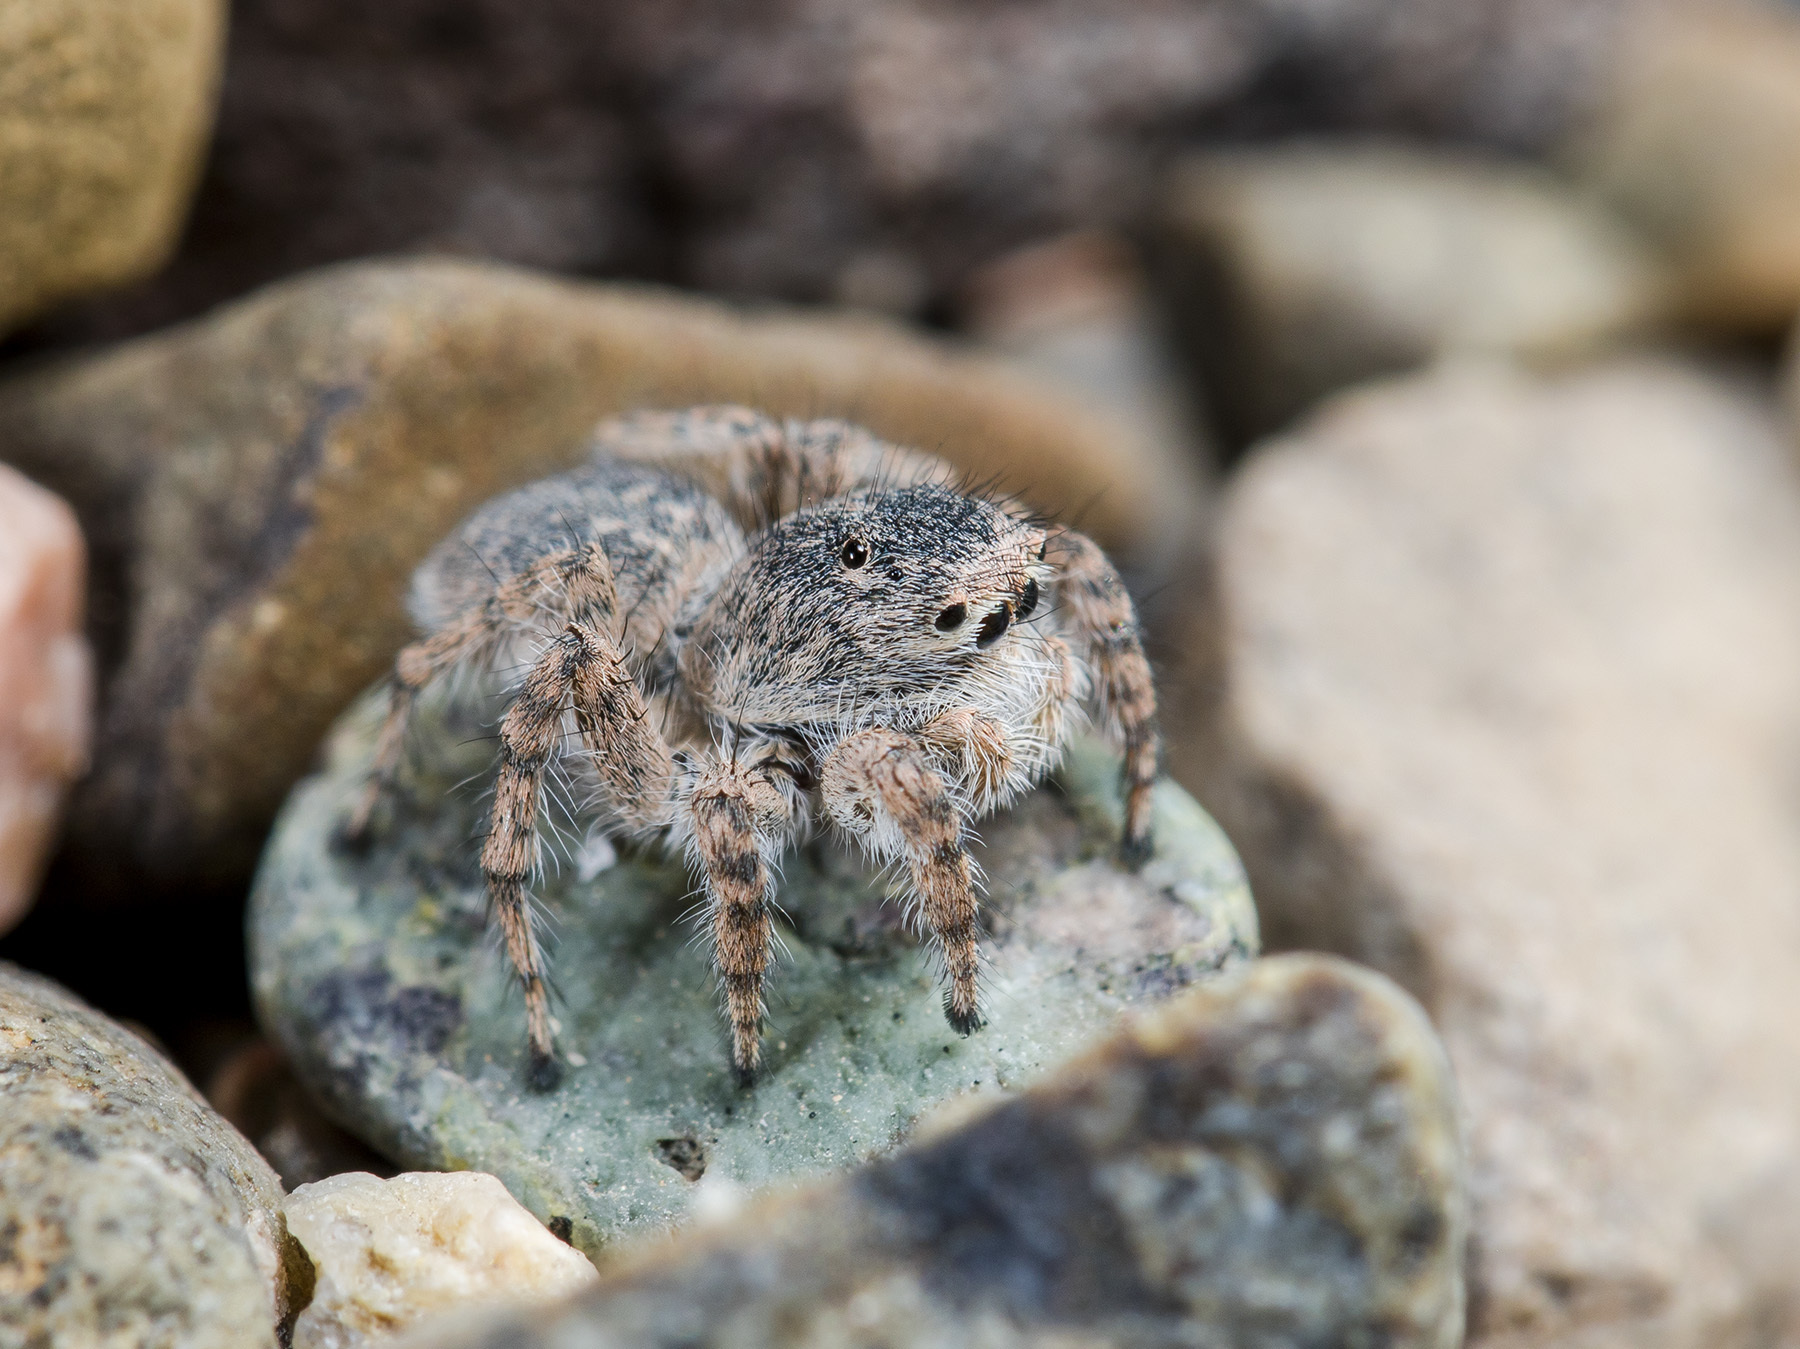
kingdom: Animalia
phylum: Arthropoda
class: Arachnida
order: Araneae
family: Salticidae
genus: Aelurillus
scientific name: Aelurillus dubatolovi
